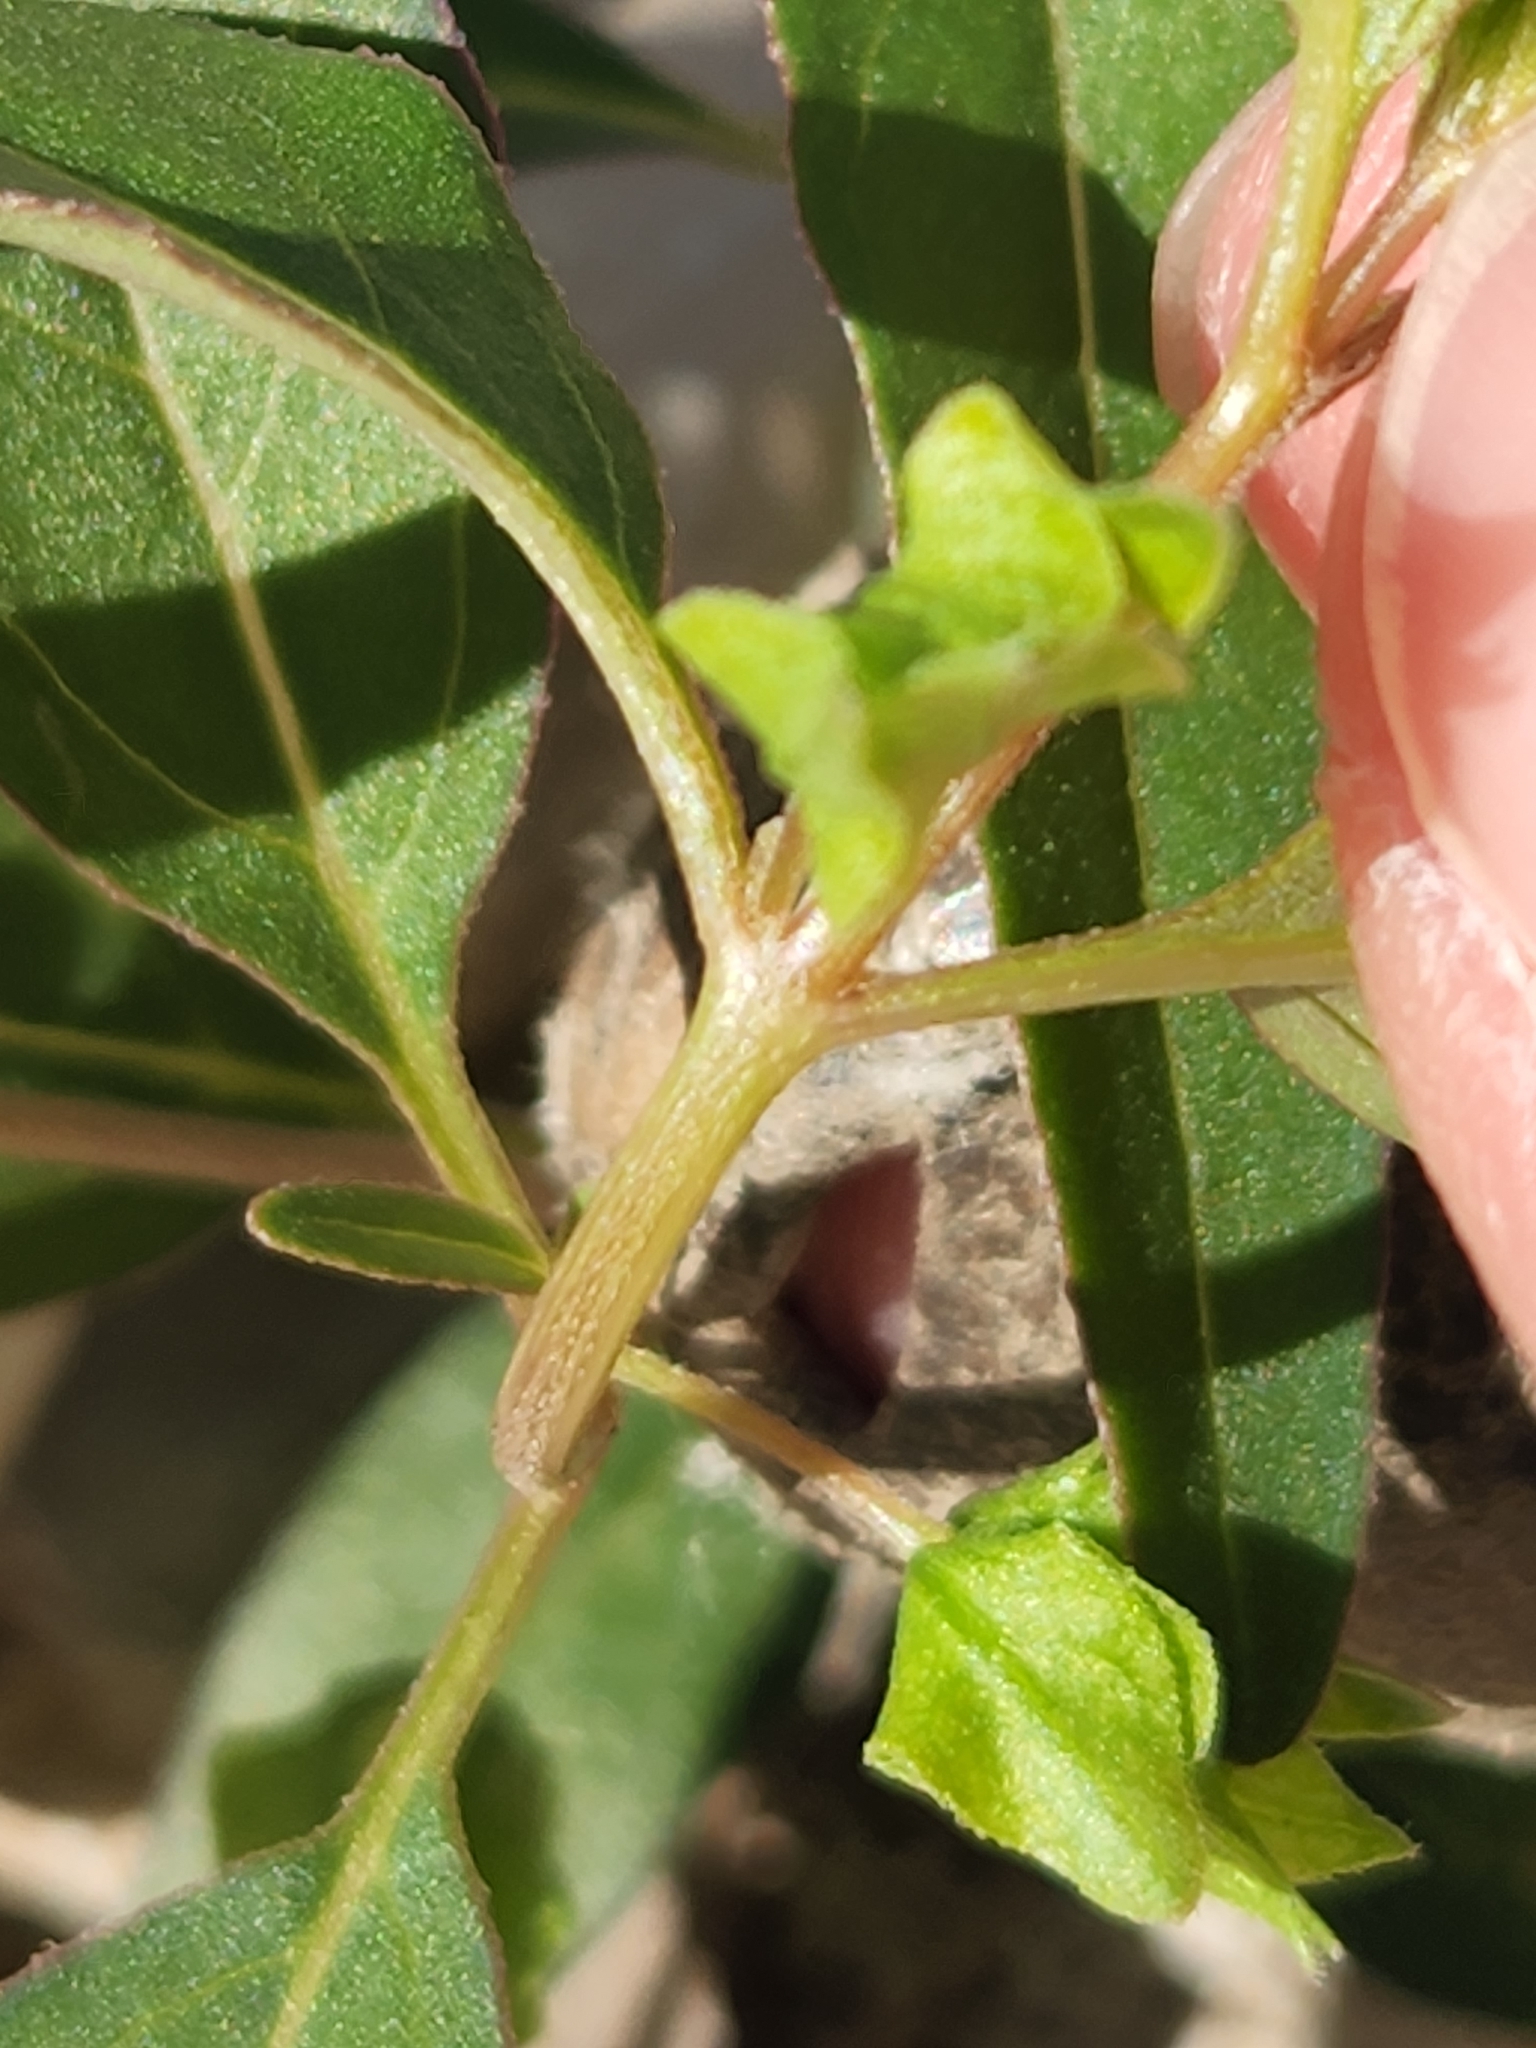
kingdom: Plantae
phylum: Tracheophyta
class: Magnoliopsida
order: Caryophyllales
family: Nyctaginaceae
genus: Mirabilis
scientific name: Mirabilis albida
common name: Hairy four-o'clock
